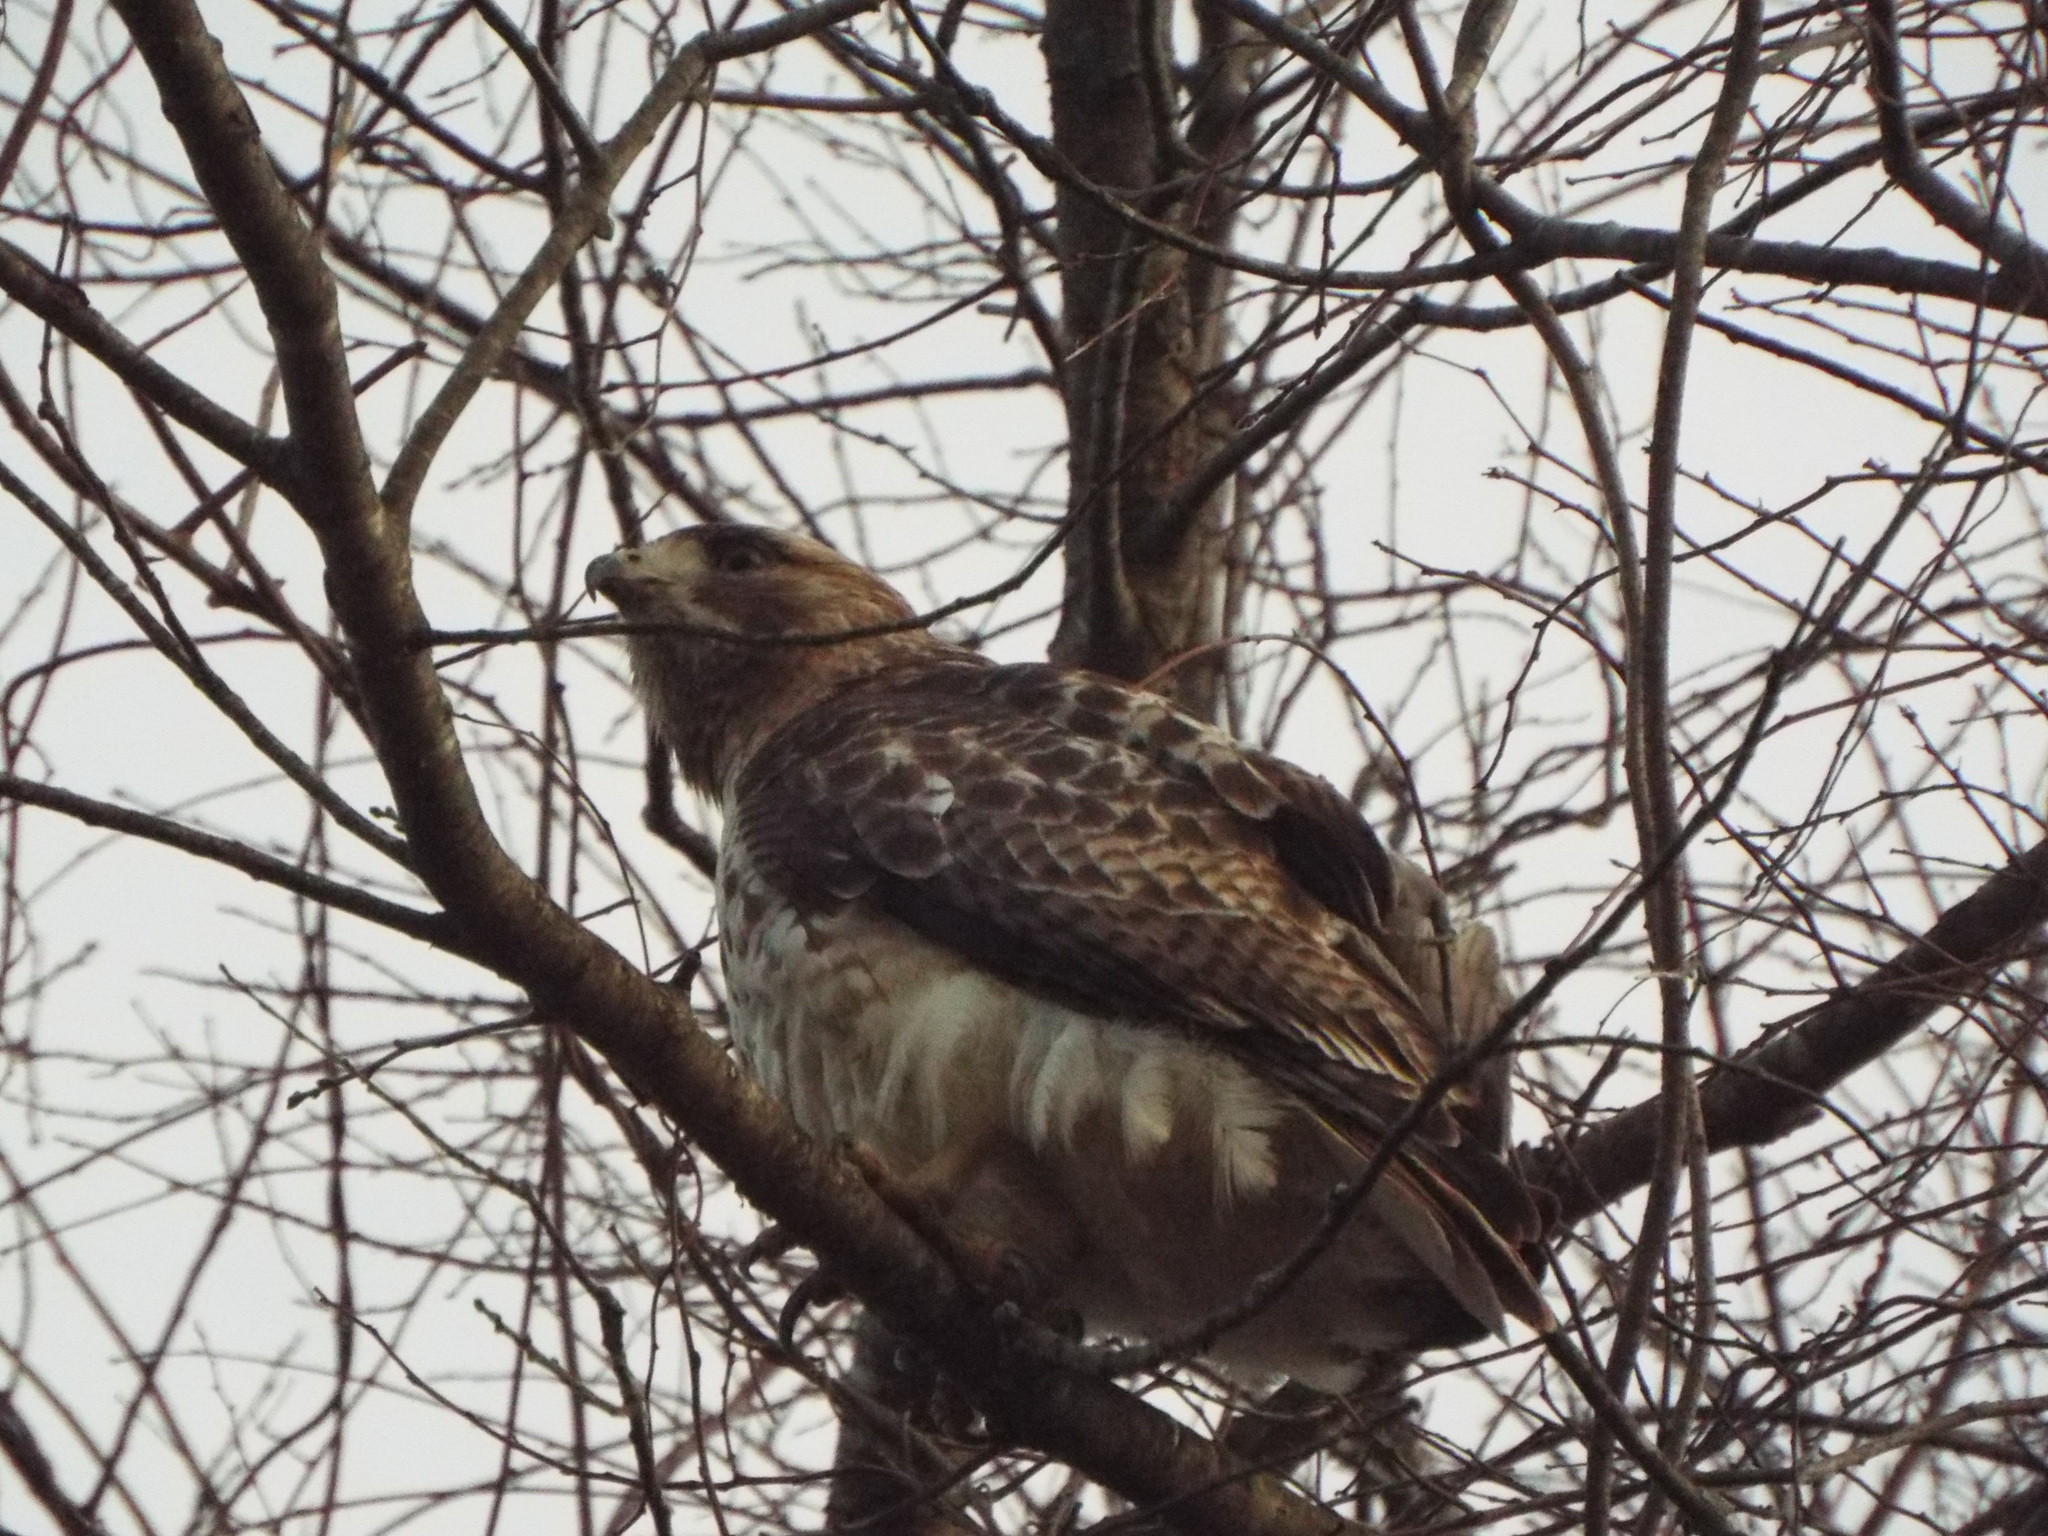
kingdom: Animalia
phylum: Chordata
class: Aves
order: Accipitriformes
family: Accipitridae
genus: Buteo
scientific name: Buteo jamaicensis
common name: Red-tailed hawk
